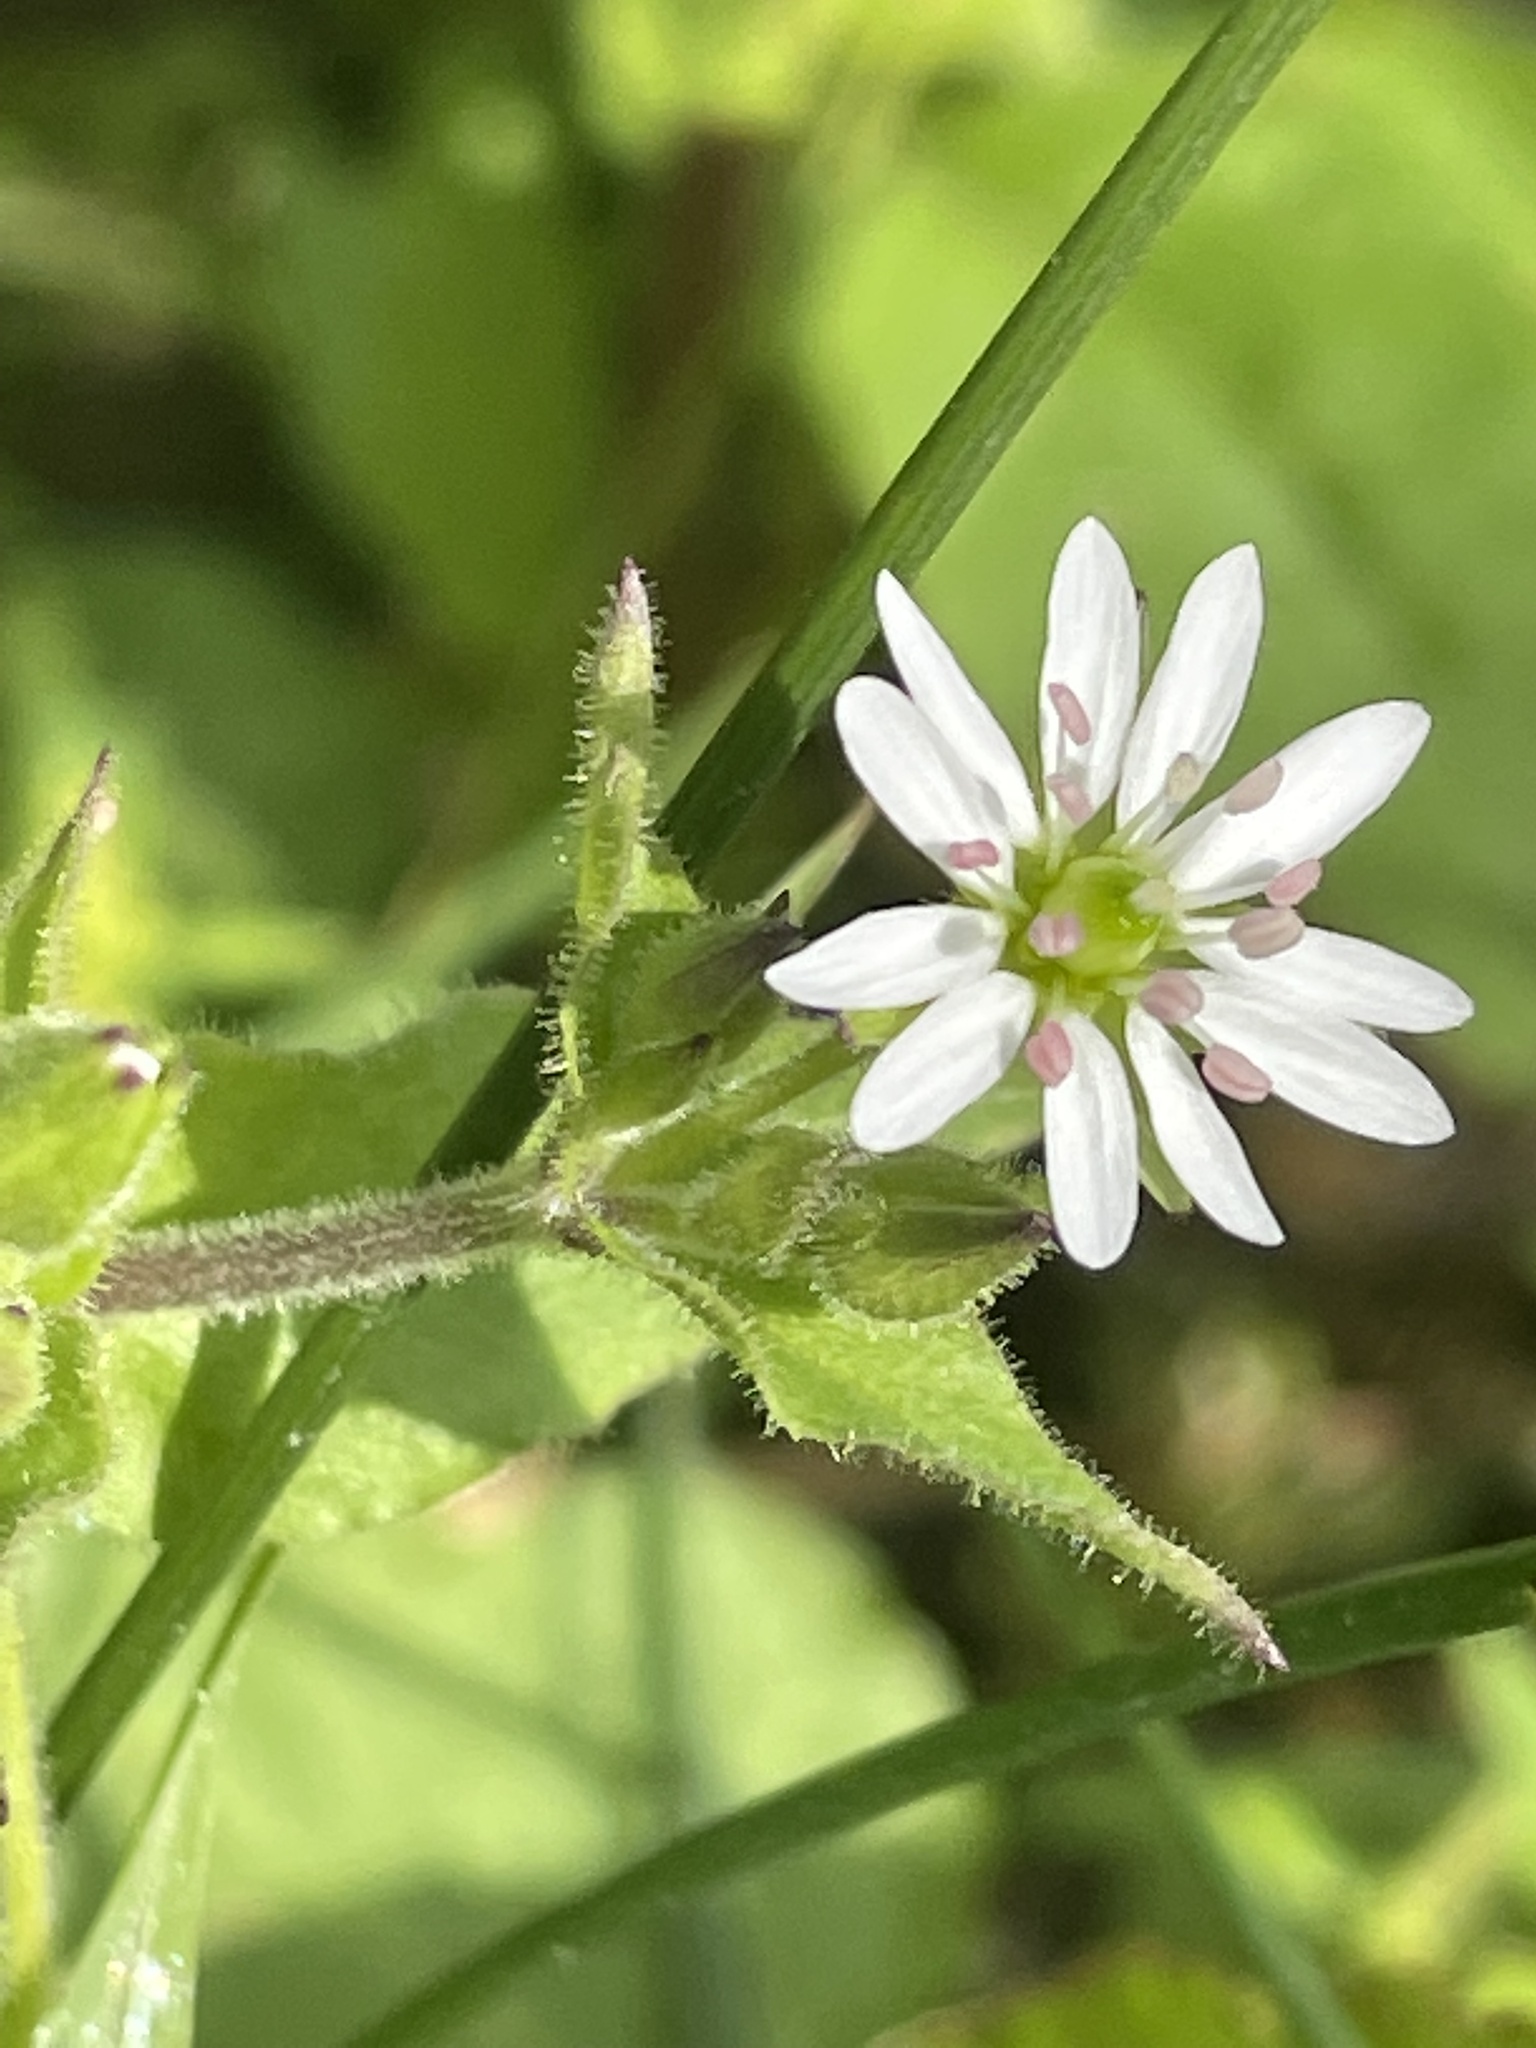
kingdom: Plantae
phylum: Tracheophyta
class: Magnoliopsida
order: Caryophyllales
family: Caryophyllaceae
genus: Stellaria
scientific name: Stellaria aquatica
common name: Water chickweed
